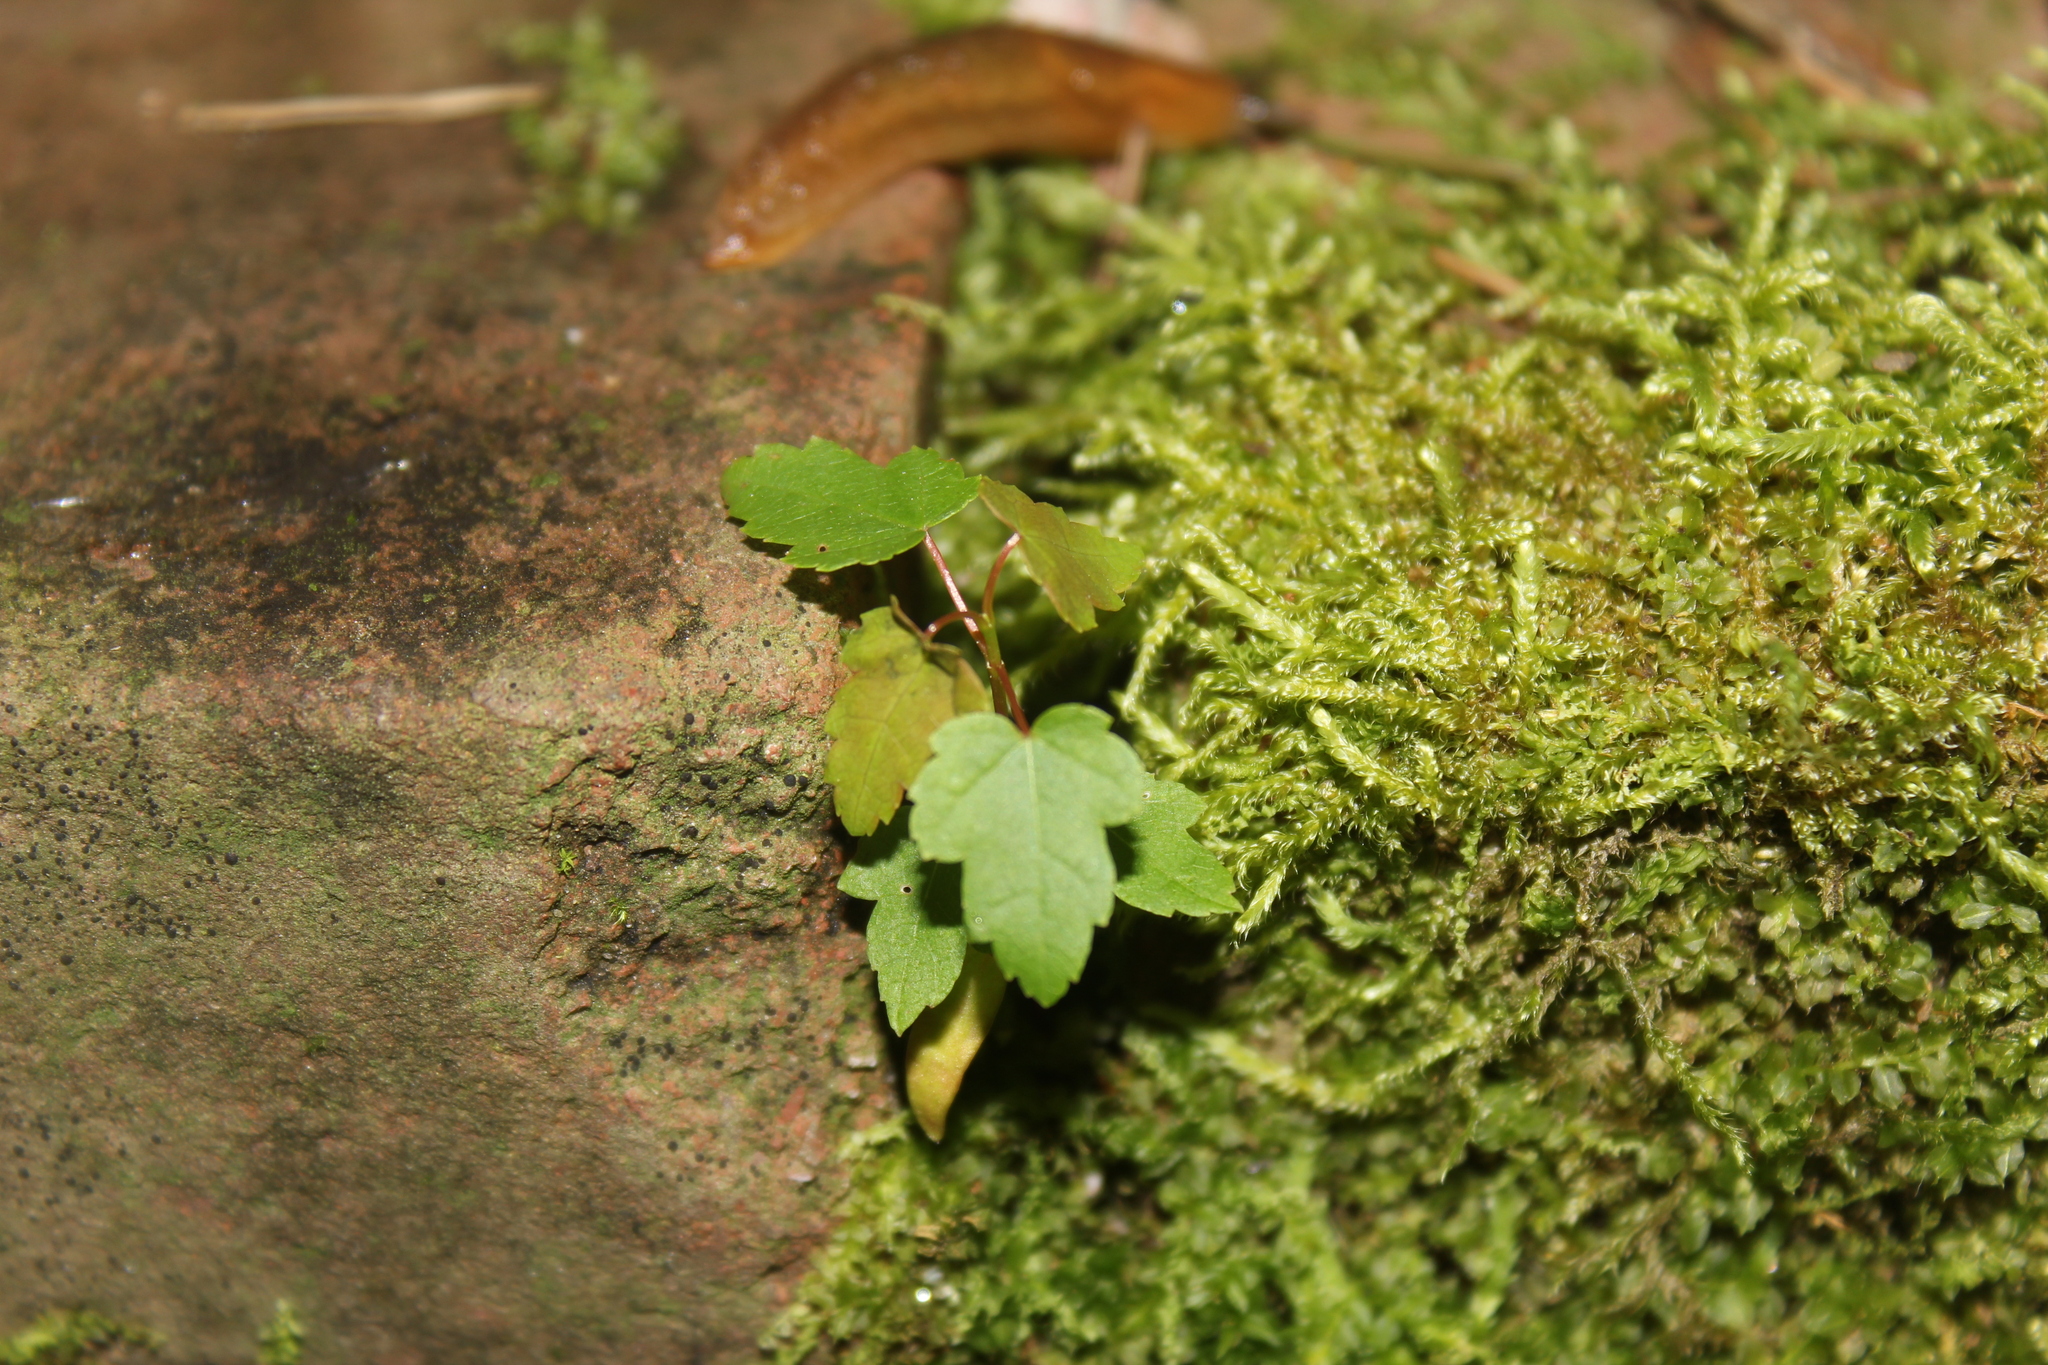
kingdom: Plantae
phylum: Tracheophyta
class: Magnoliopsida
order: Sapindales
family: Sapindaceae
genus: Acer
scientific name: Acer rubrum
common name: Red maple
